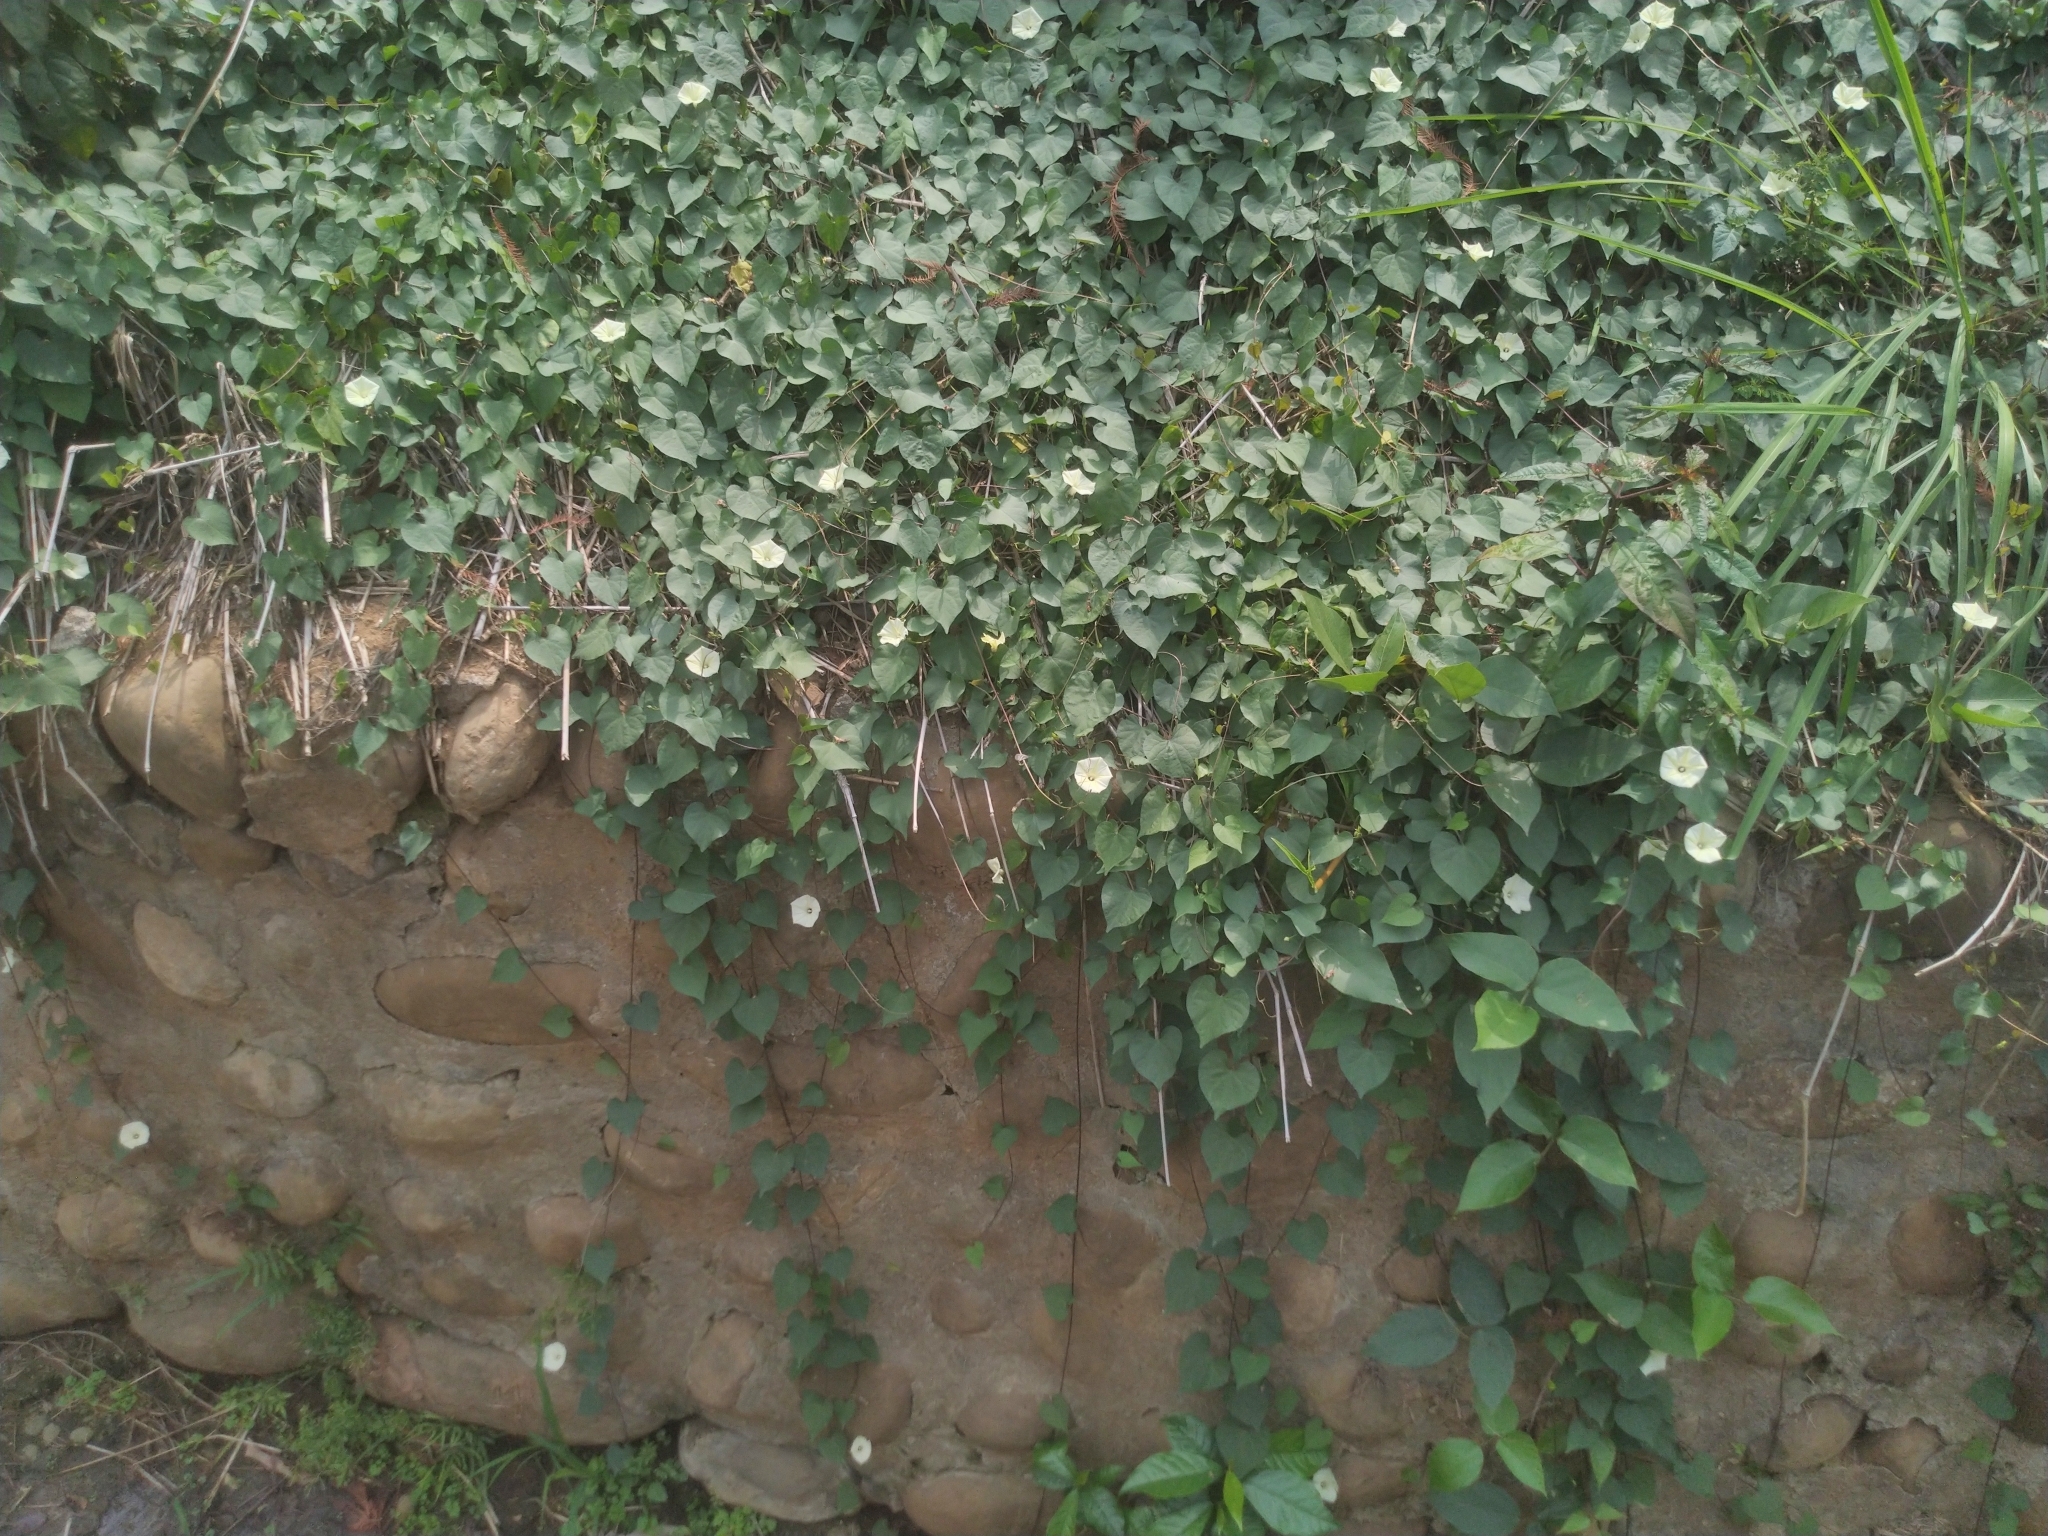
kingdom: Plantae
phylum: Tracheophyta
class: Magnoliopsida
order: Solanales
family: Convolvulaceae
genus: Ipomoea
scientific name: Ipomoea obscura
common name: Obscure morning-glory
